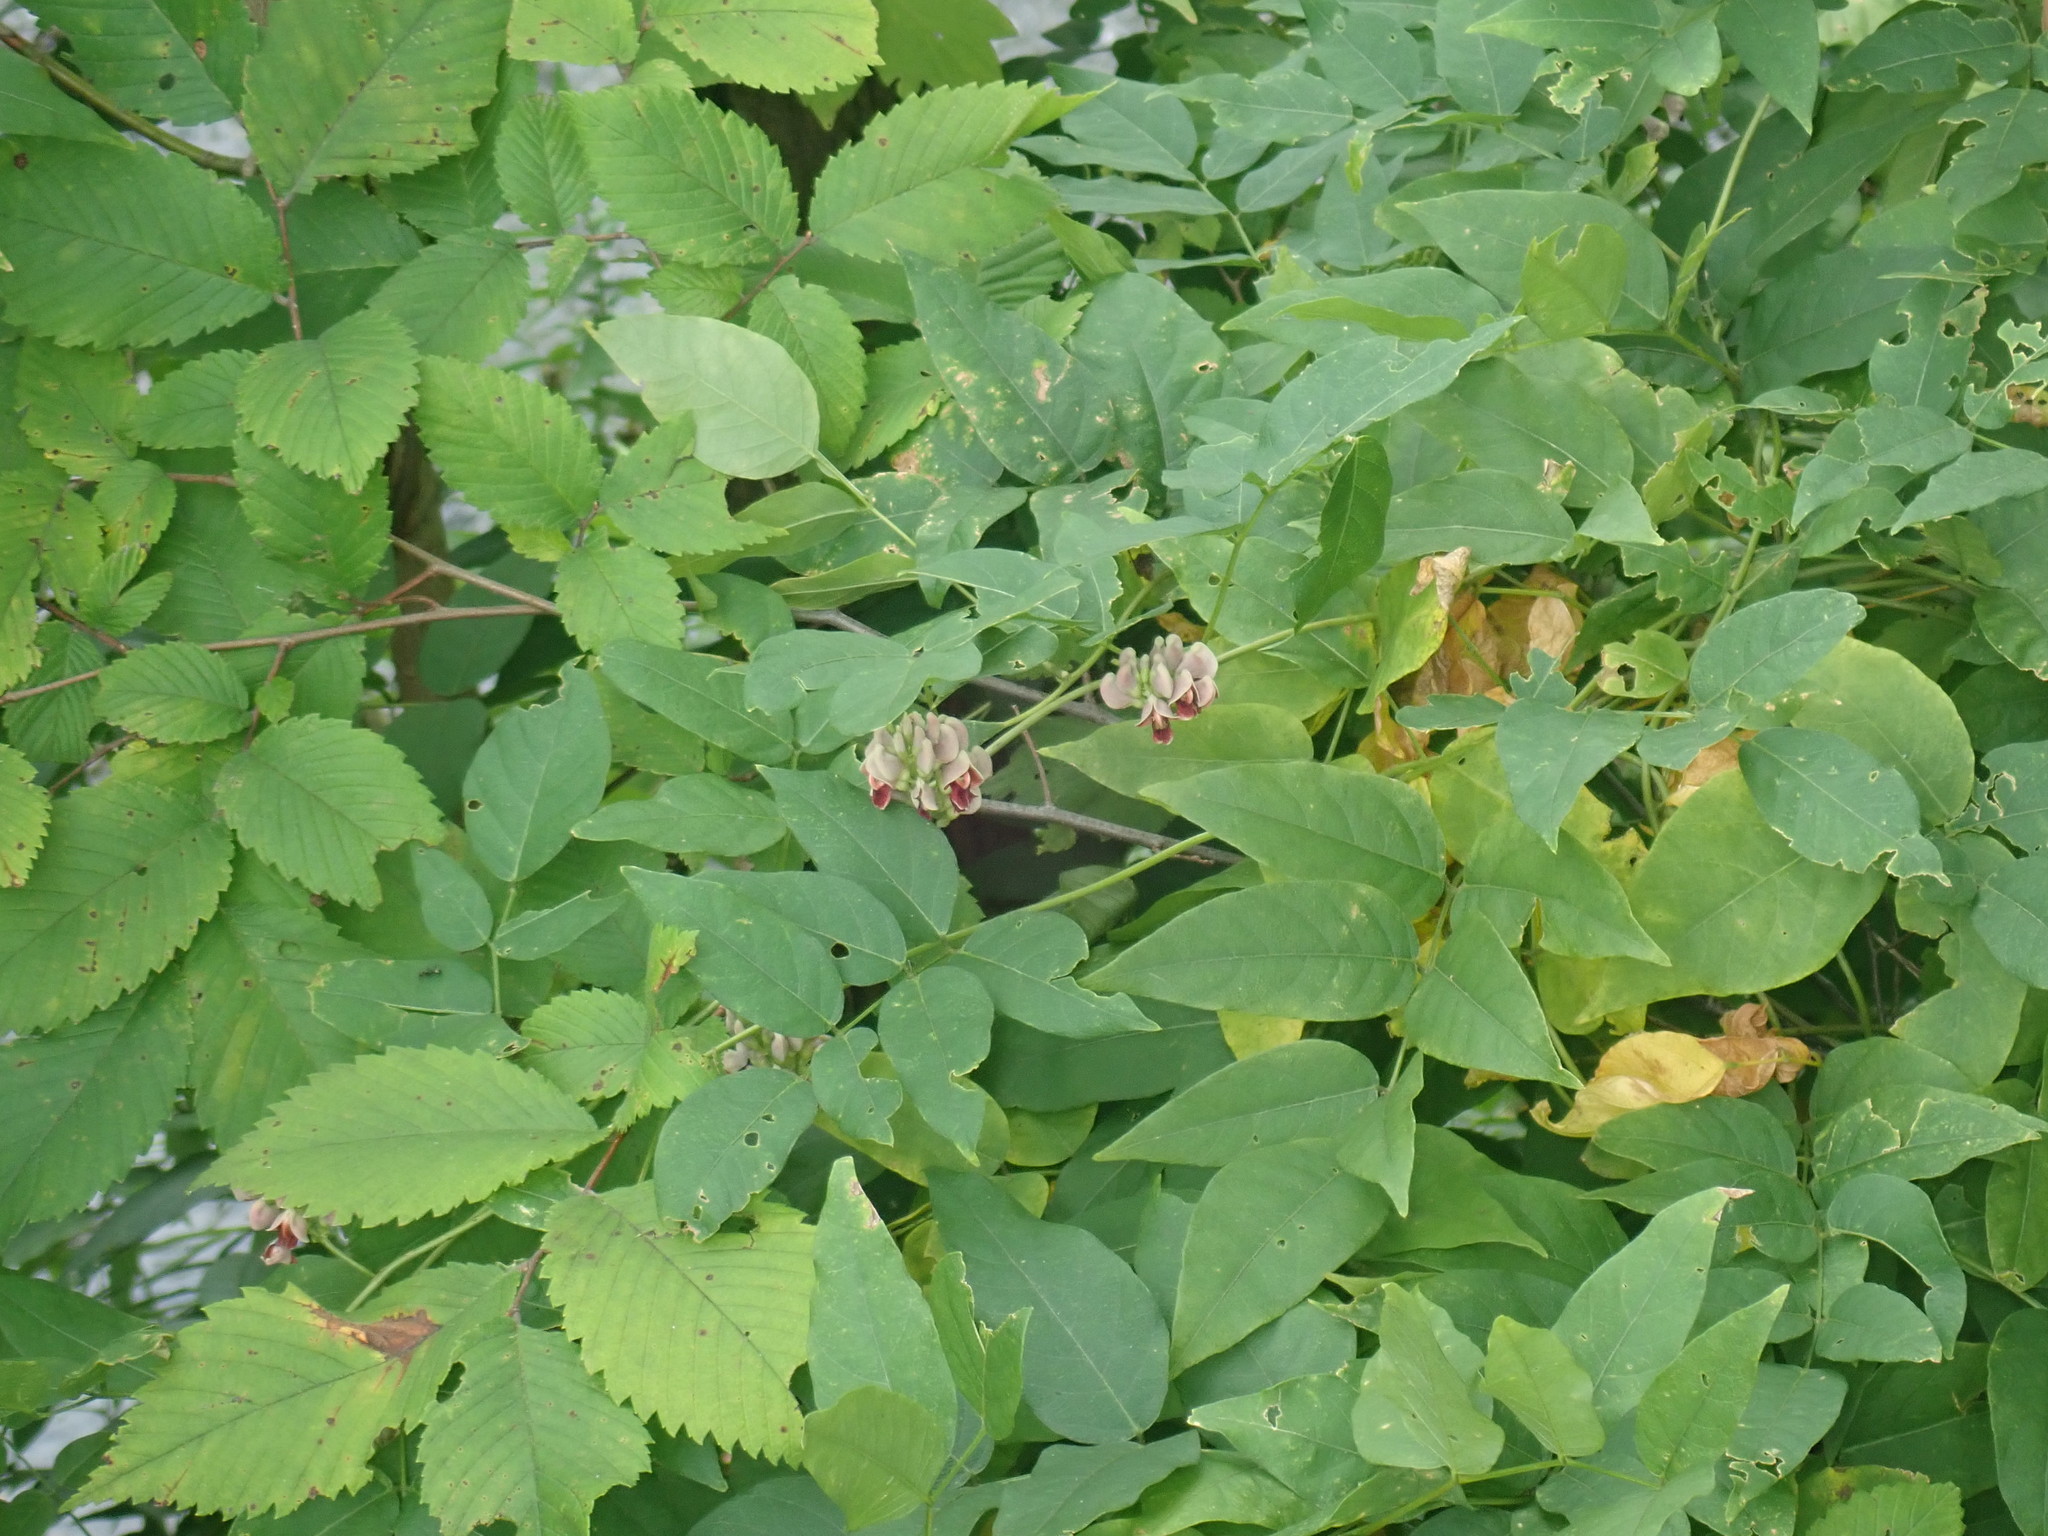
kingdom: Plantae
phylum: Tracheophyta
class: Magnoliopsida
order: Fabales
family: Fabaceae
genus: Apios
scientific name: Apios americana
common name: American potato-bean
